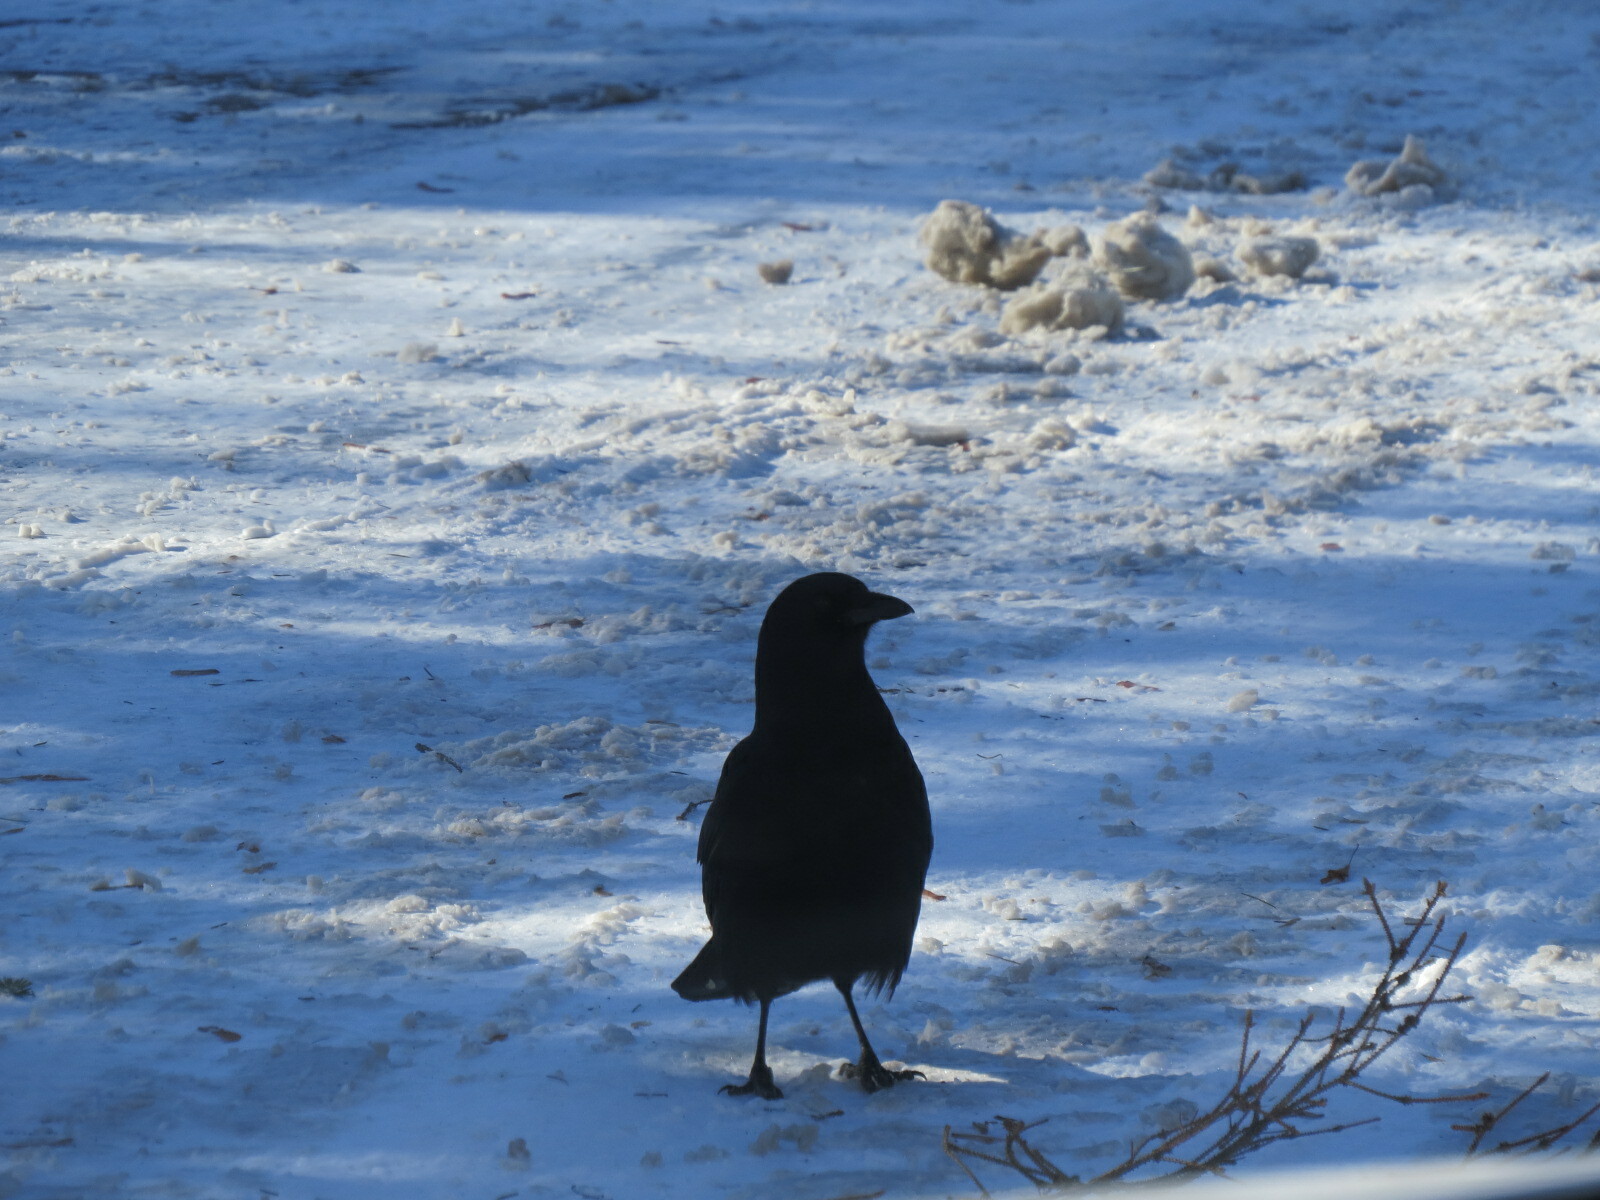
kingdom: Animalia
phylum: Chordata
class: Aves
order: Passeriformes
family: Corvidae
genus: Corvus
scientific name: Corvus brachyrhynchos
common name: American crow
